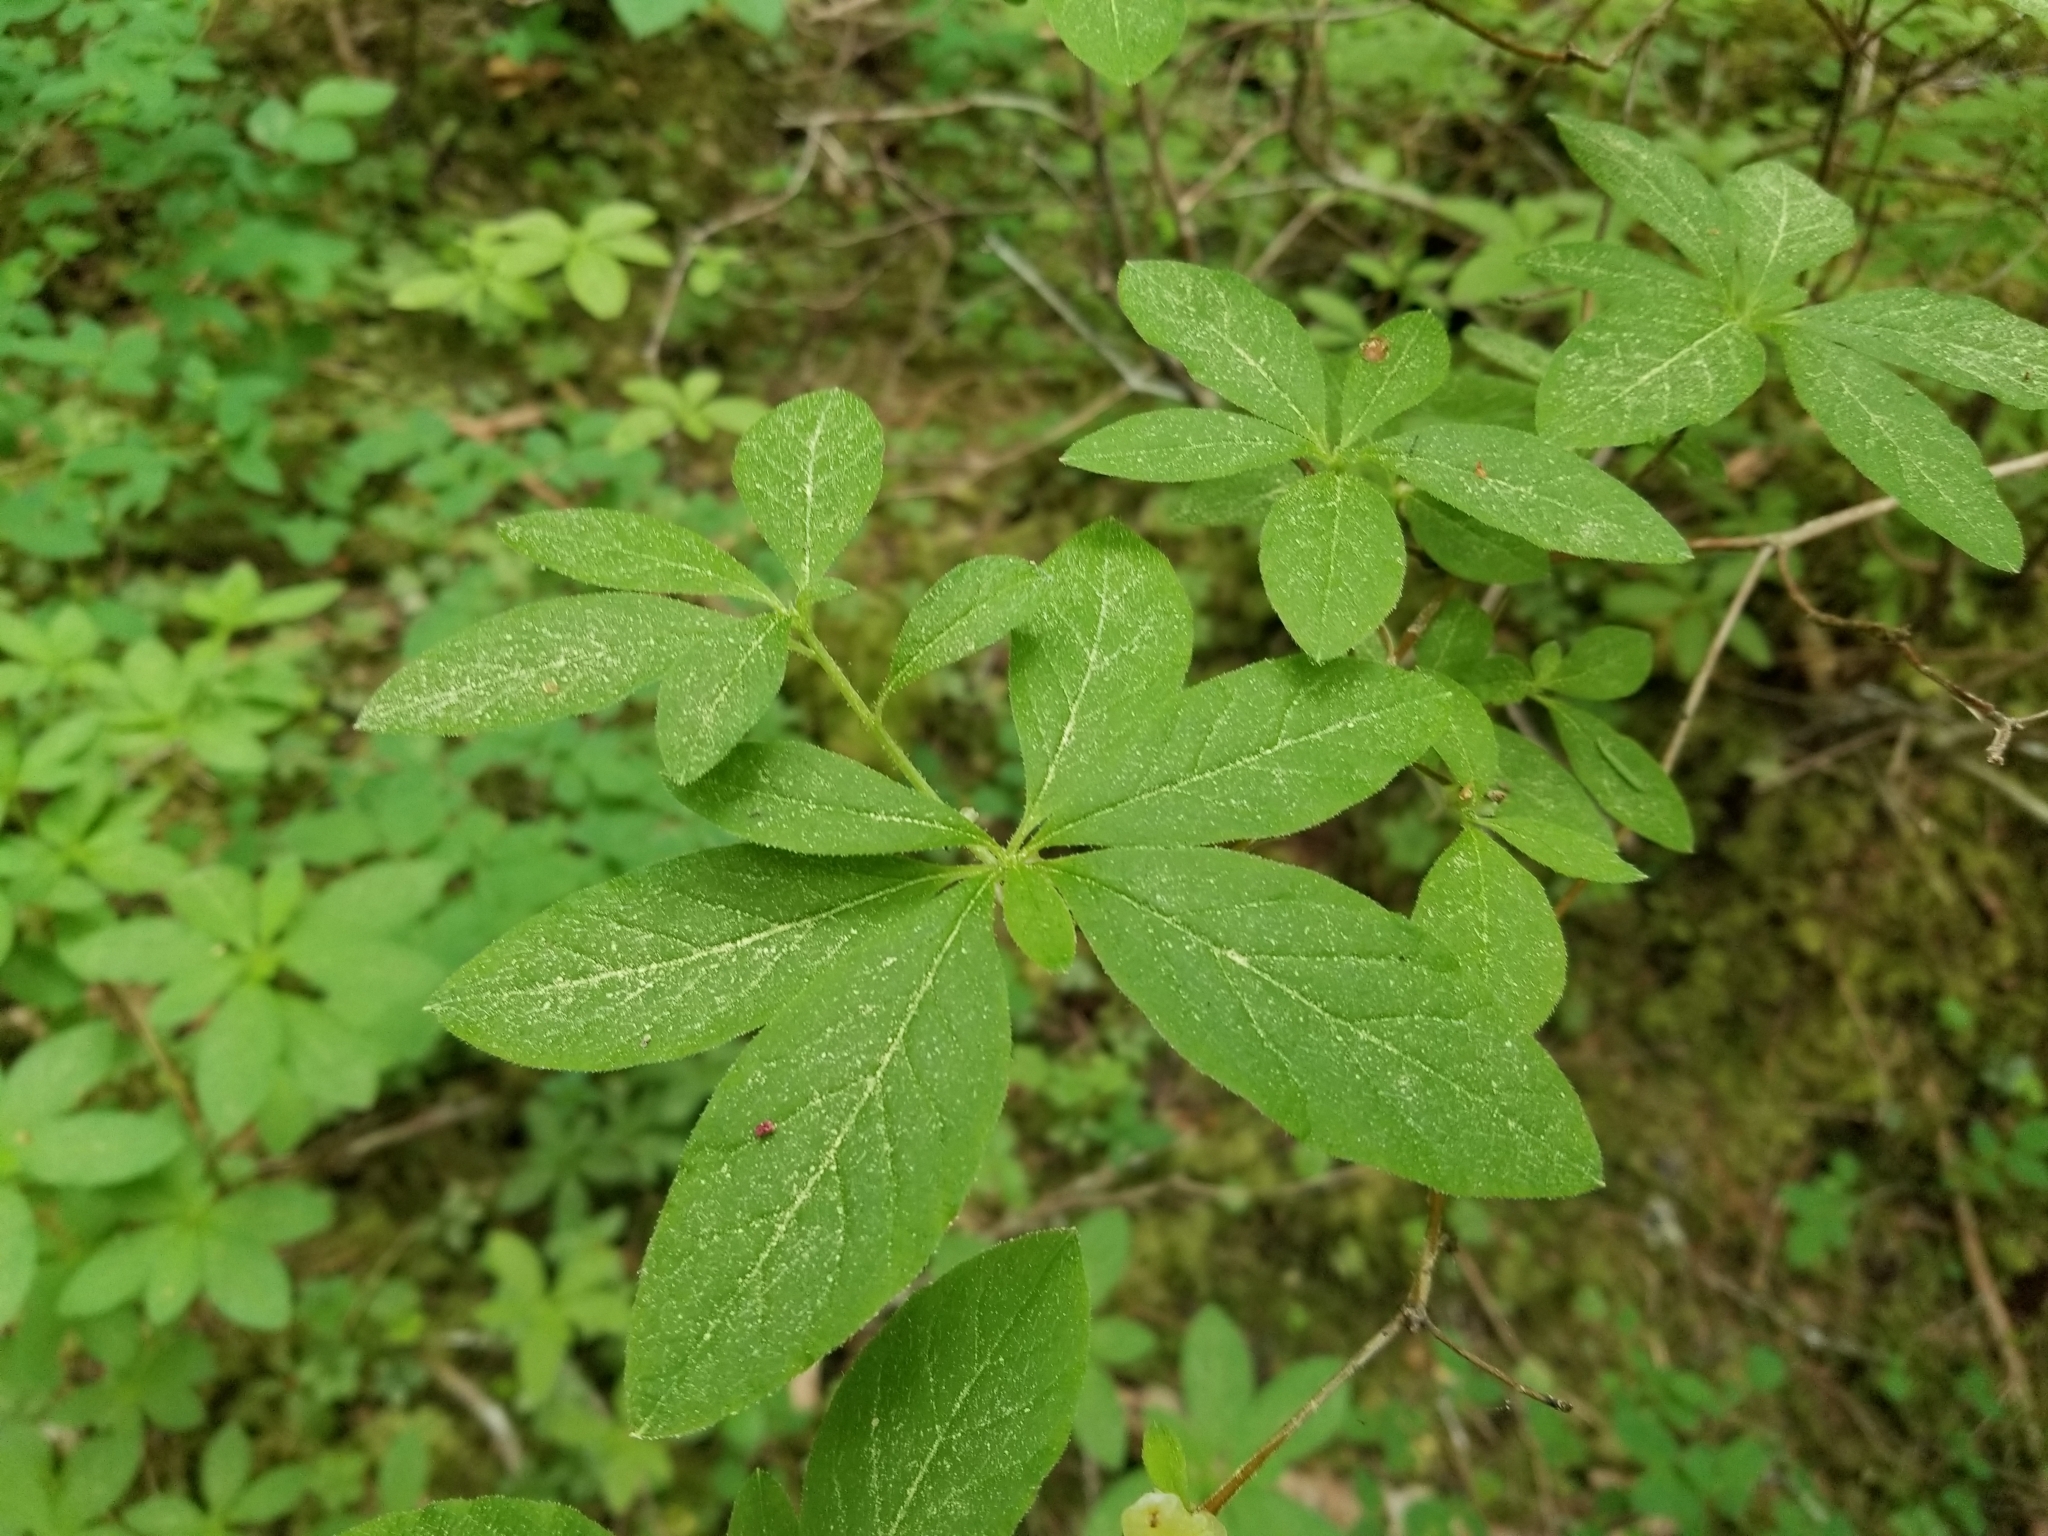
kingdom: Plantae
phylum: Tracheophyta
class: Magnoliopsida
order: Ericales
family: Ericaceae
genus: Rhododendron
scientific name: Rhododendron menziesii
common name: Pacific menziesia
